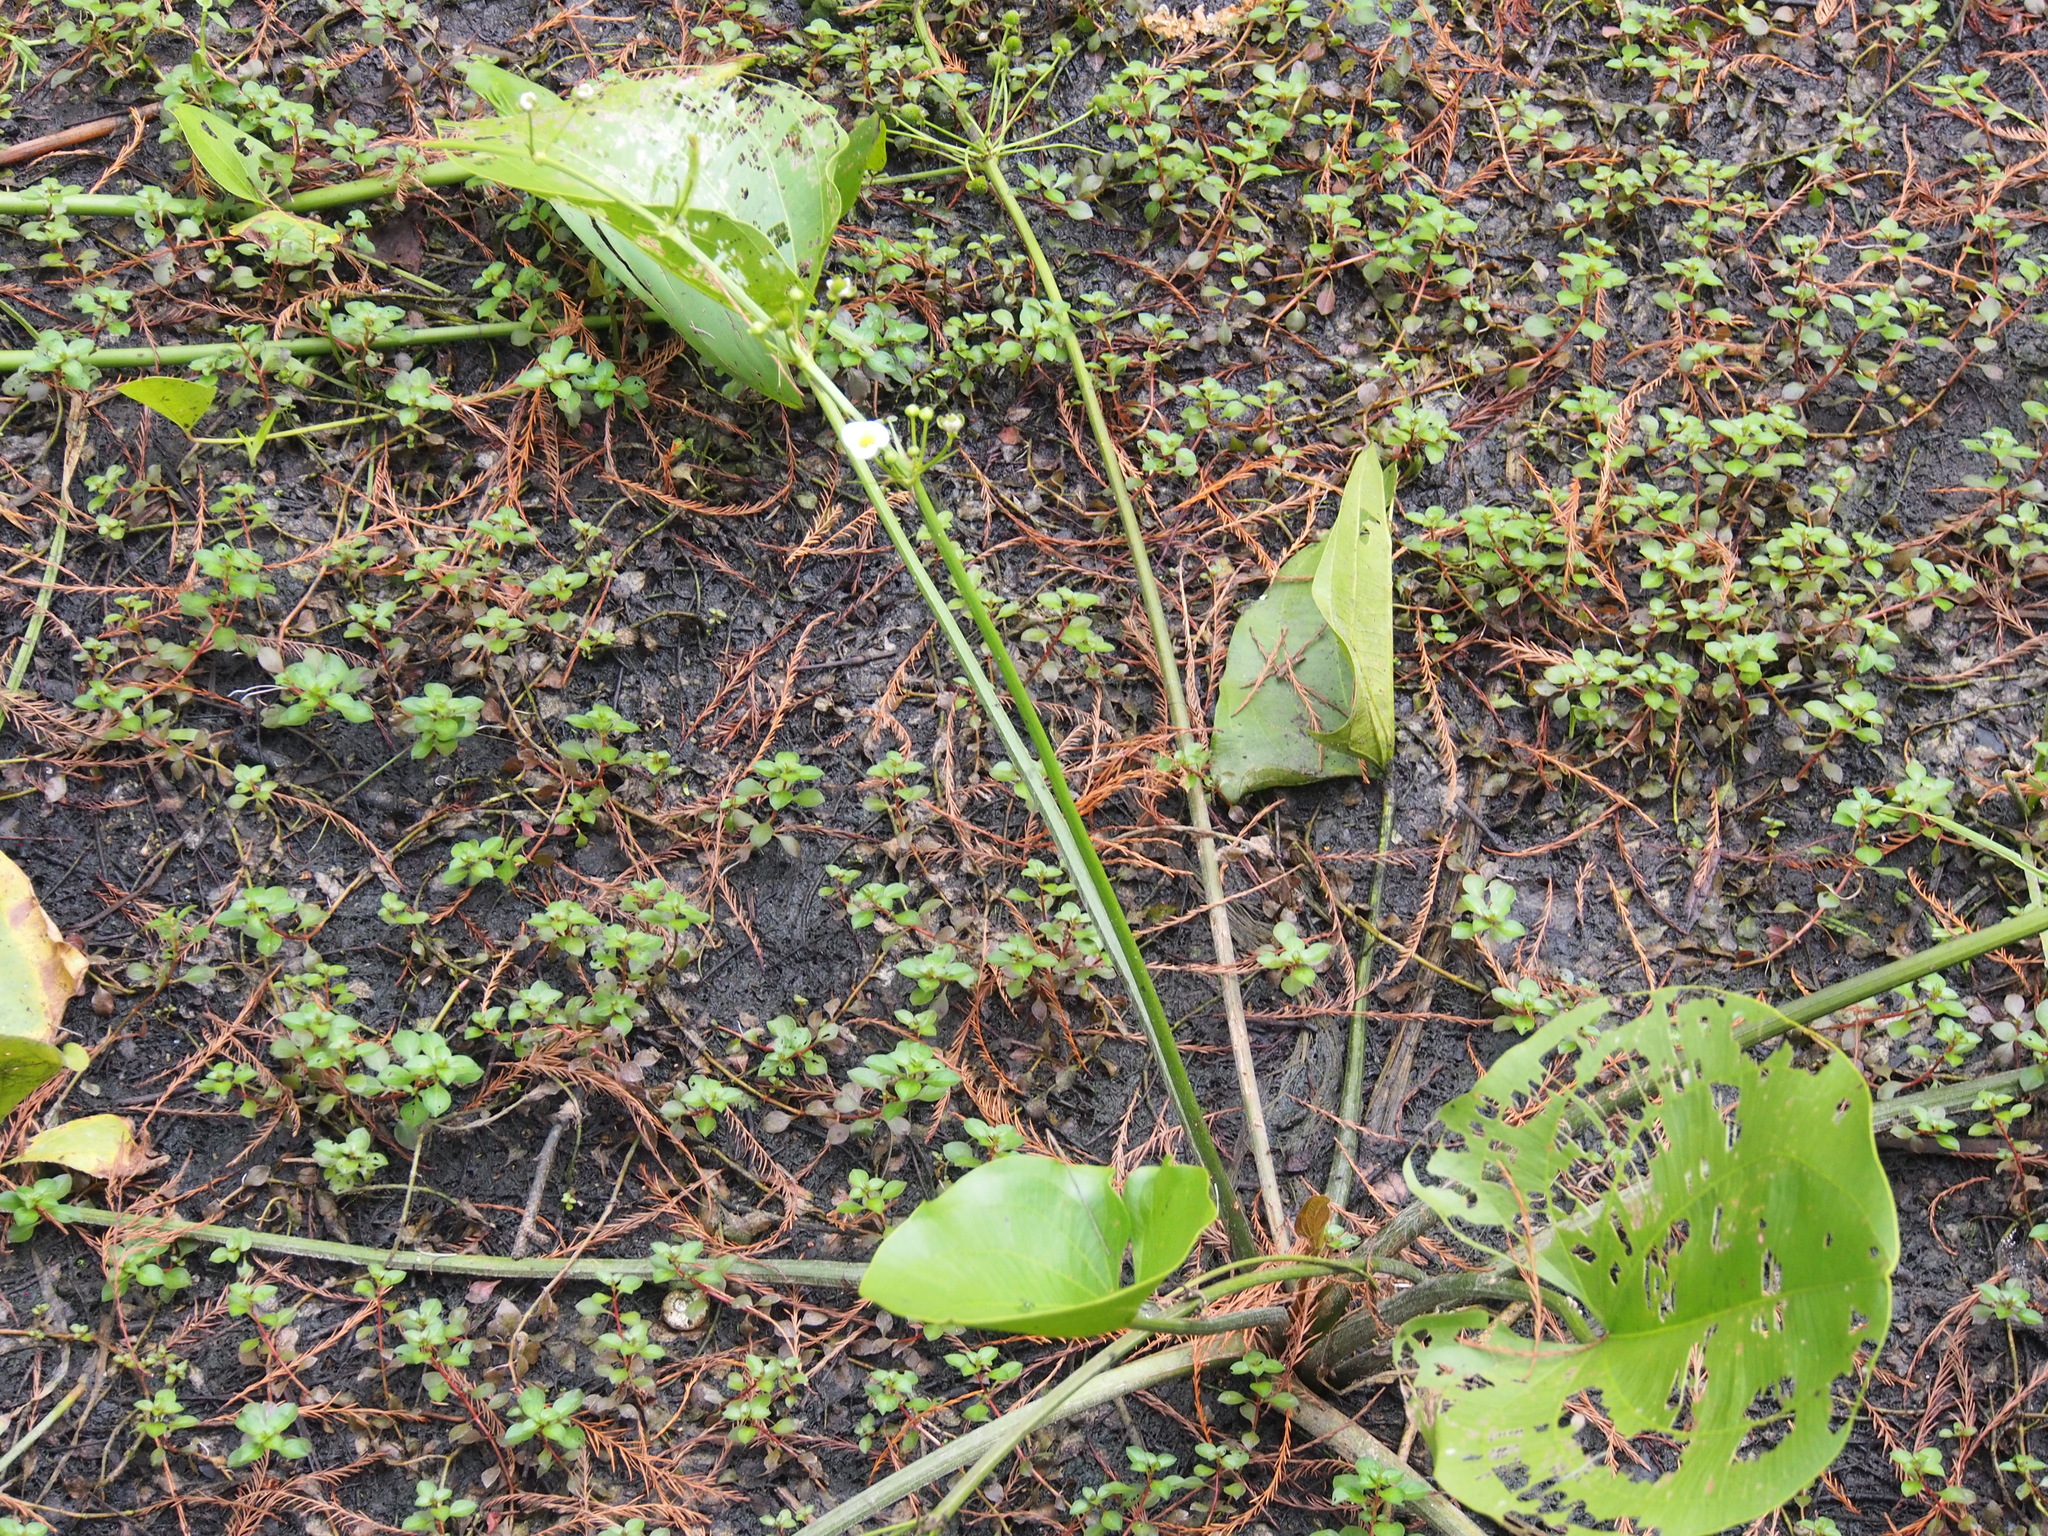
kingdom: Plantae
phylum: Tracheophyta
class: Liliopsida
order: Alismatales
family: Alismataceae
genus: Aquarius
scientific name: Aquarius cordifolius
